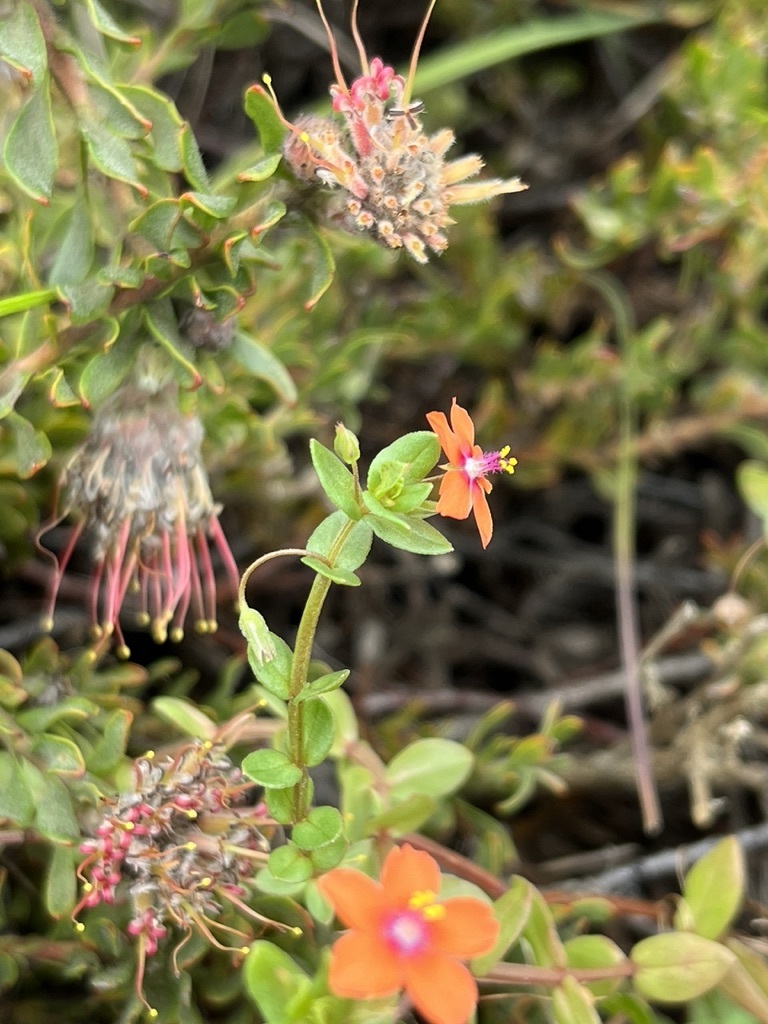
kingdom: Plantae
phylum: Tracheophyta
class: Magnoliopsida
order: Ericales
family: Primulaceae
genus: Lysimachia
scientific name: Lysimachia arvensis
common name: Scarlet pimpernel
